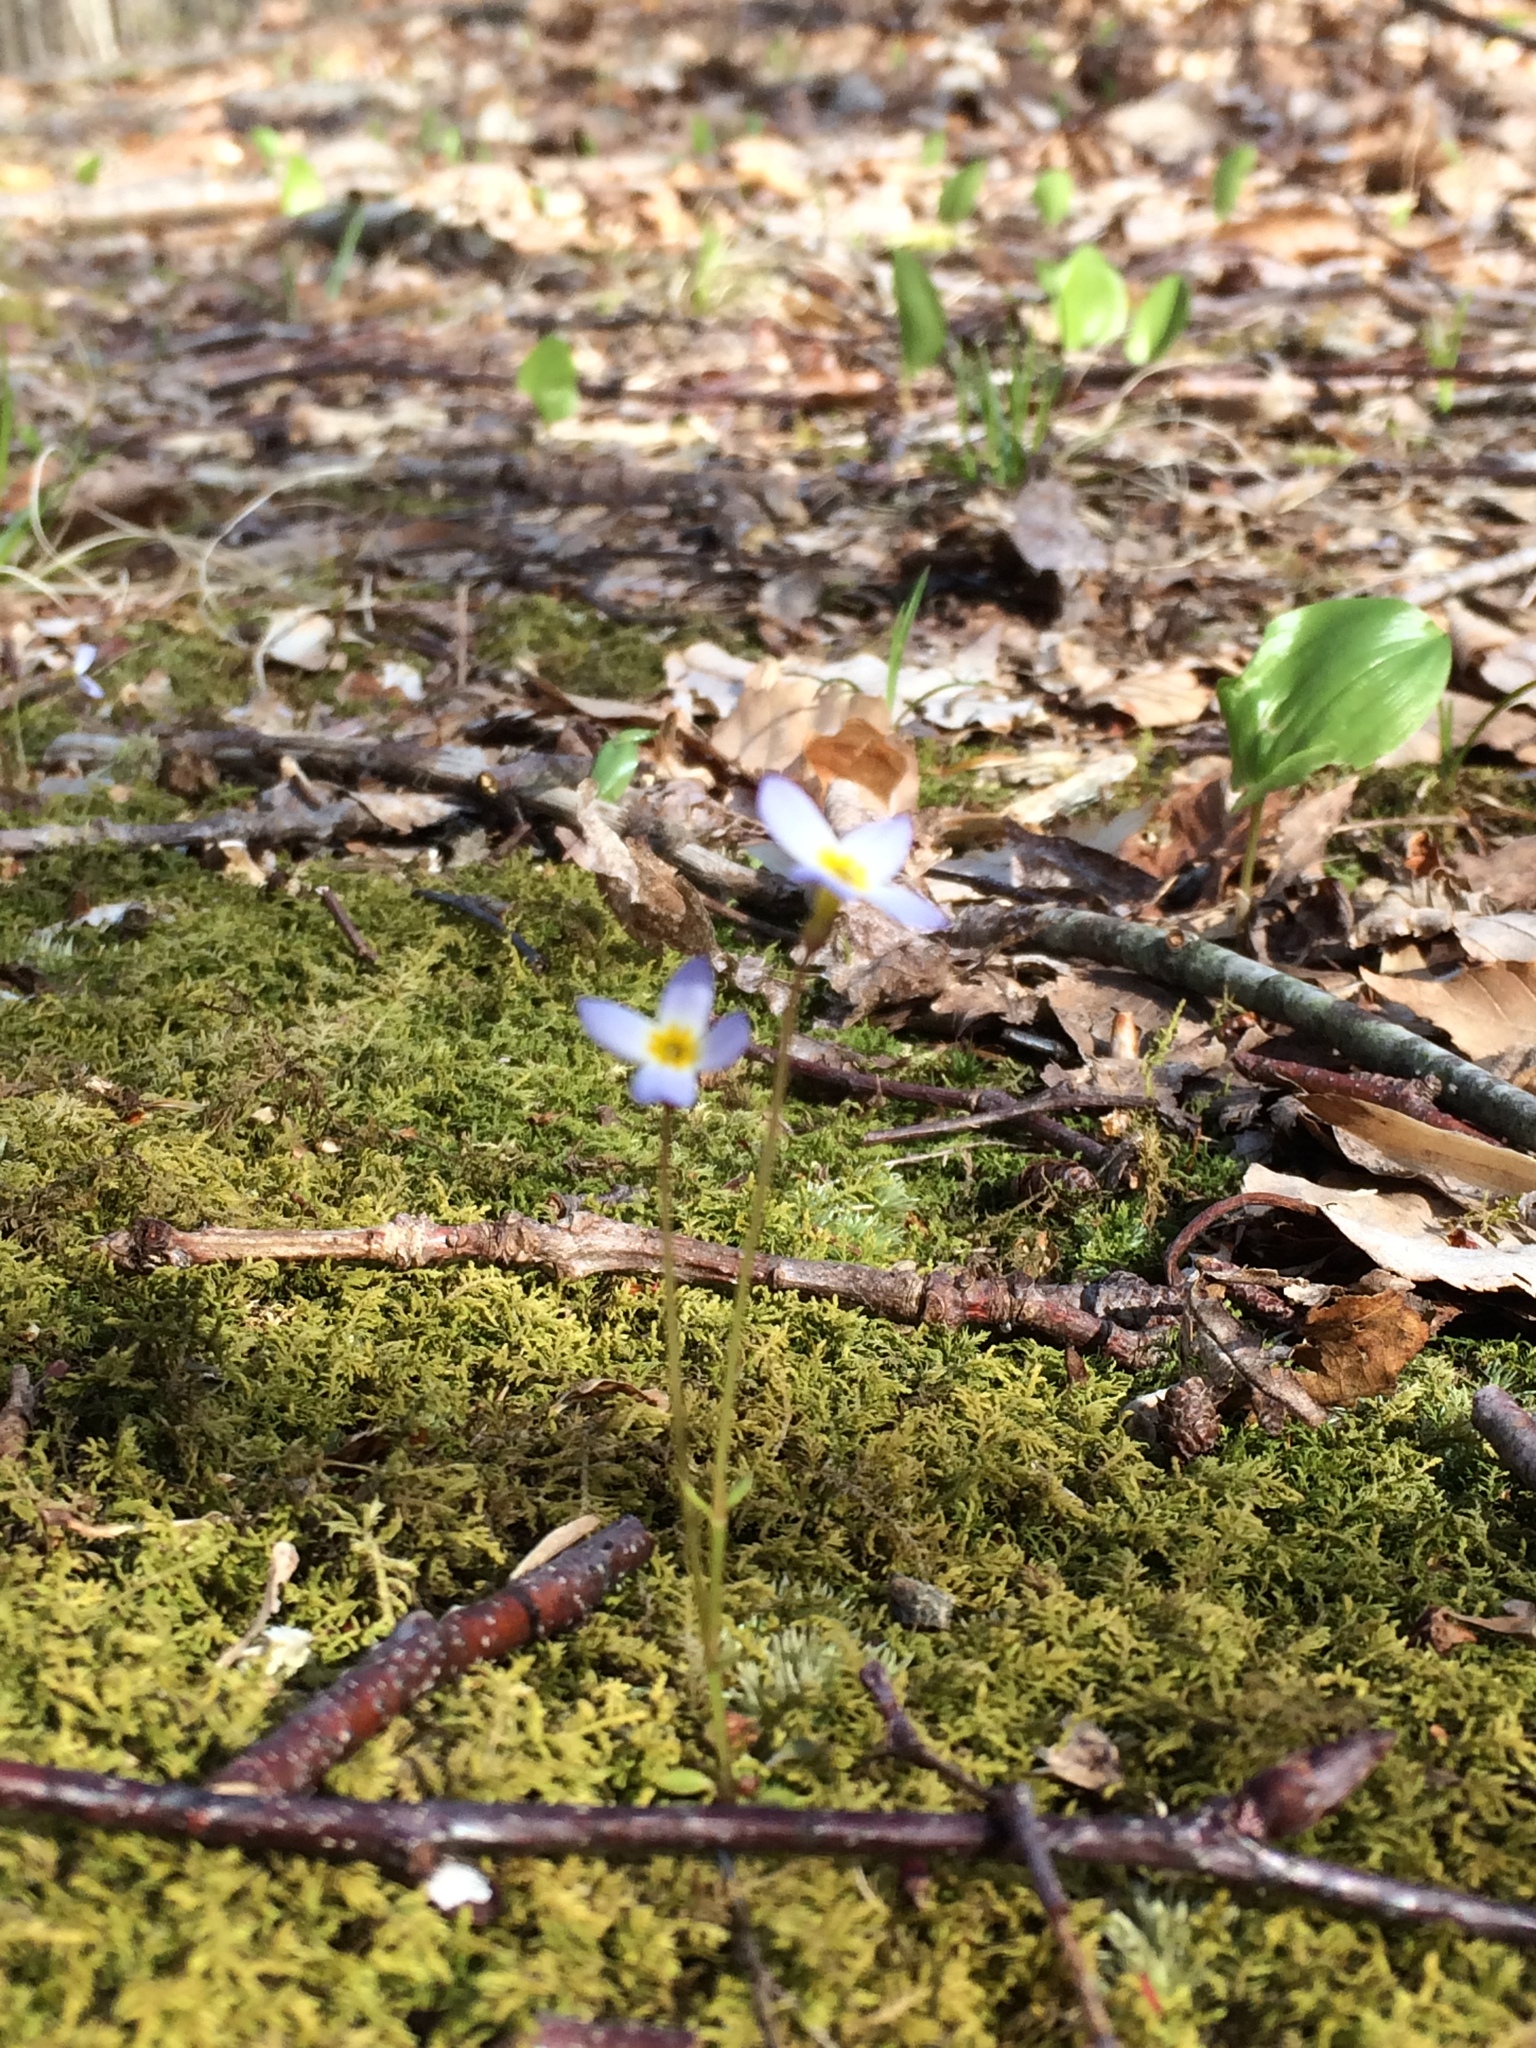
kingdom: Plantae
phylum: Tracheophyta
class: Magnoliopsida
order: Gentianales
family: Rubiaceae
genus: Houstonia
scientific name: Houstonia caerulea
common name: Bluets
